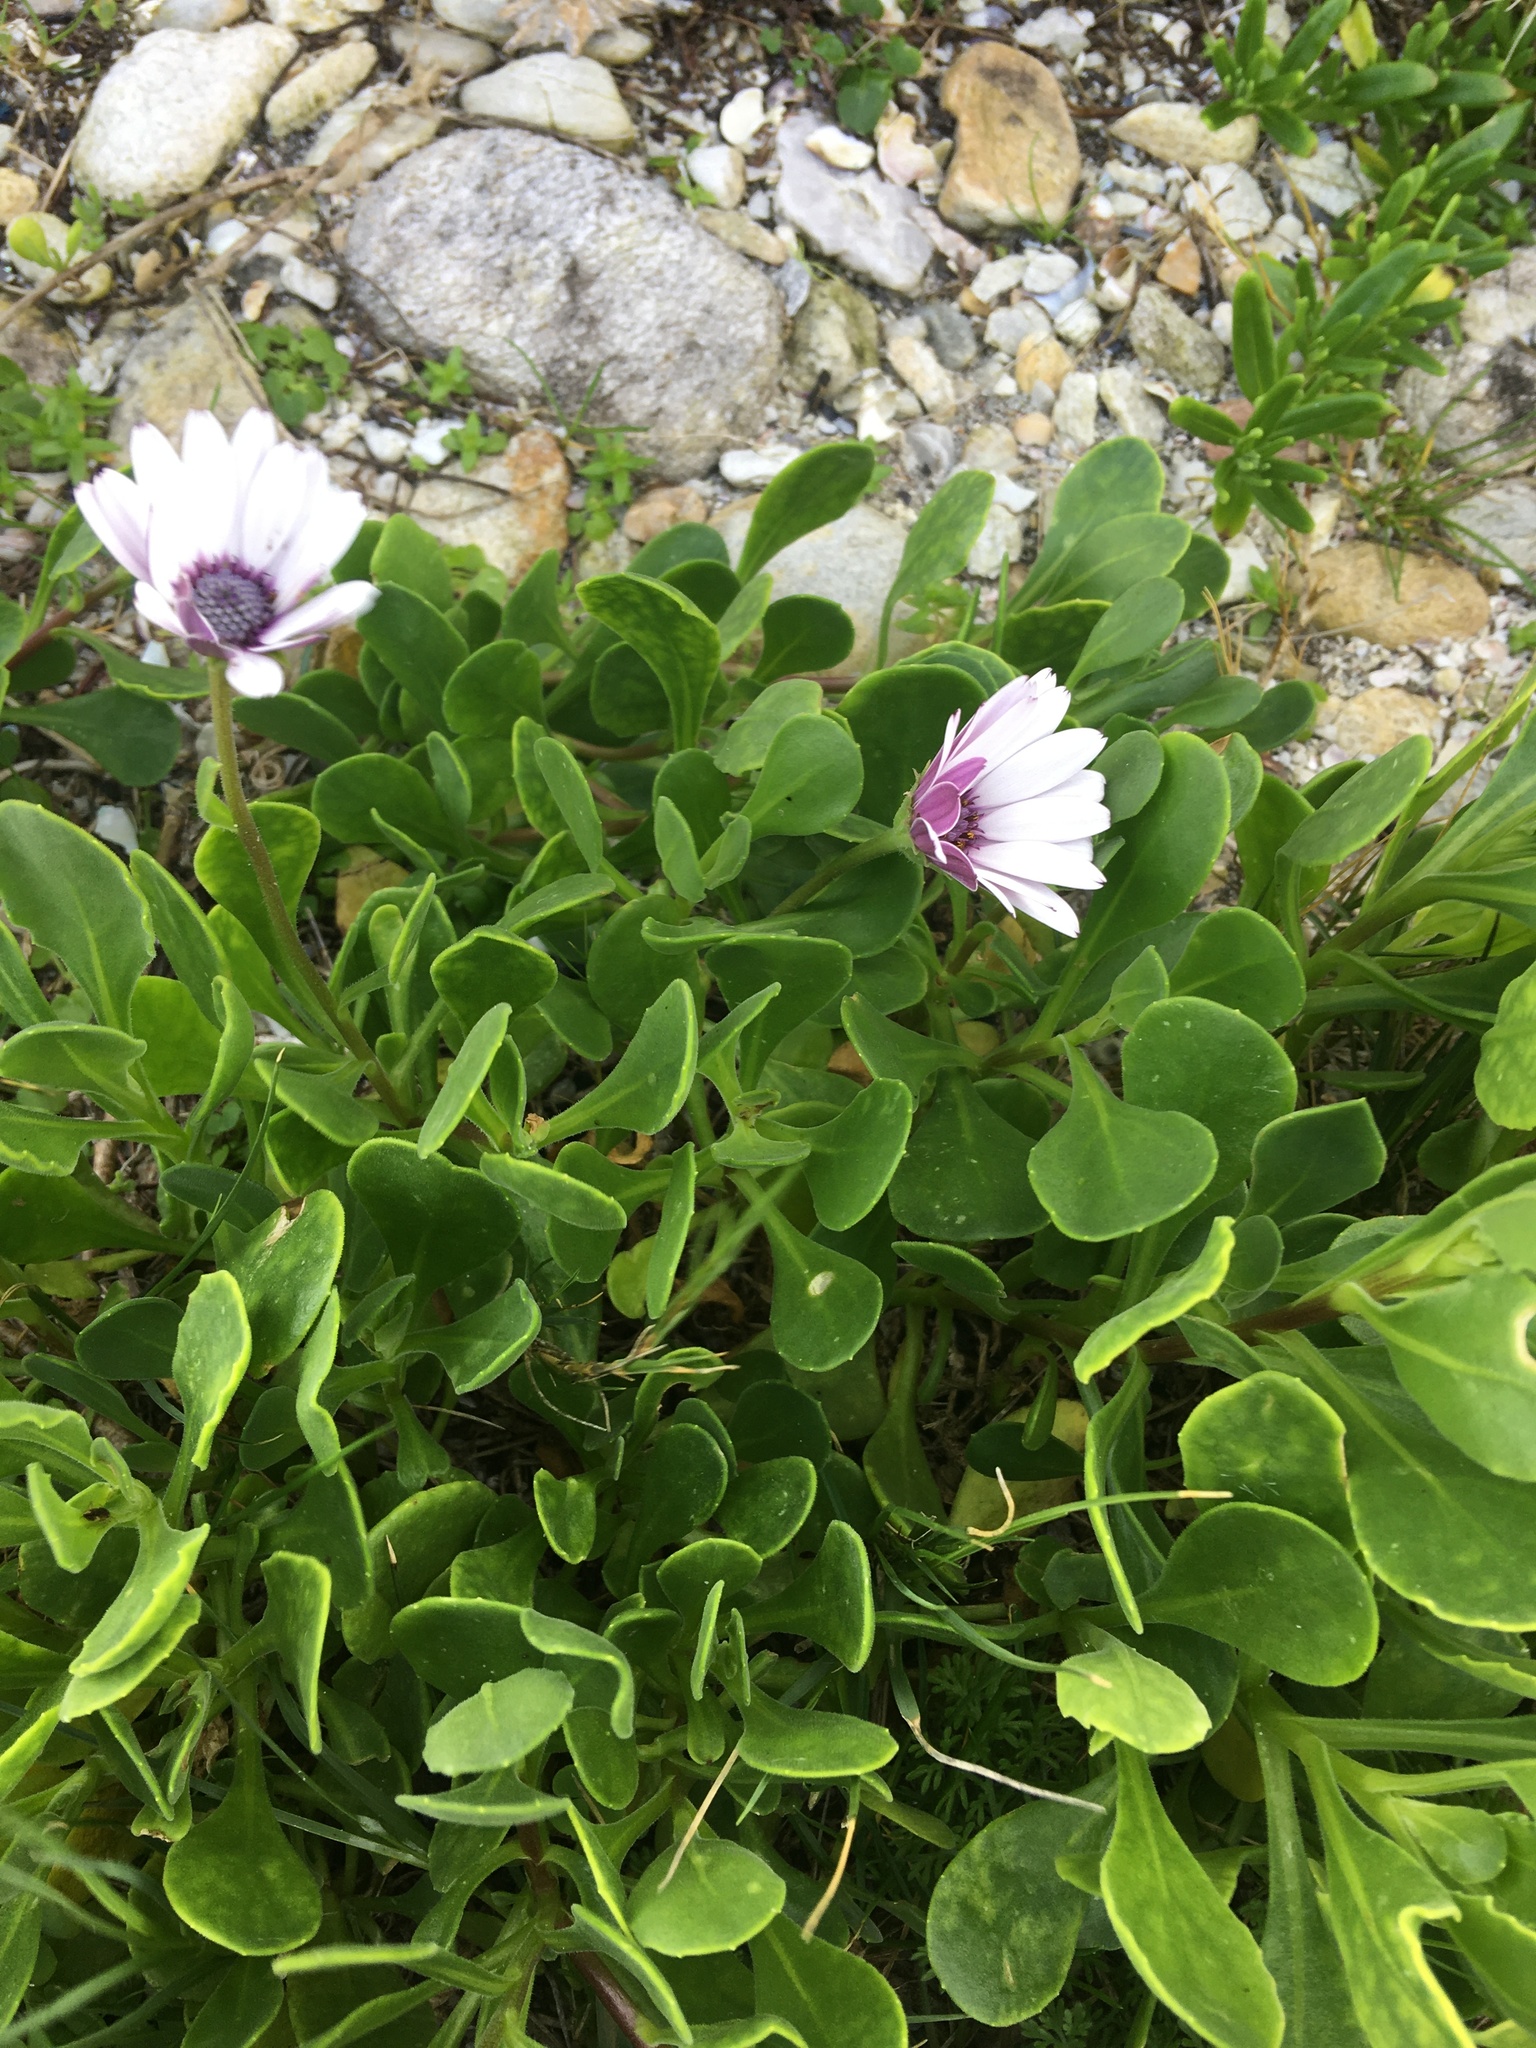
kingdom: Plantae
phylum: Tracheophyta
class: Magnoliopsida
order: Asterales
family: Asteraceae
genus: Dimorphotheca
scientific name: Dimorphotheca fruticosa
